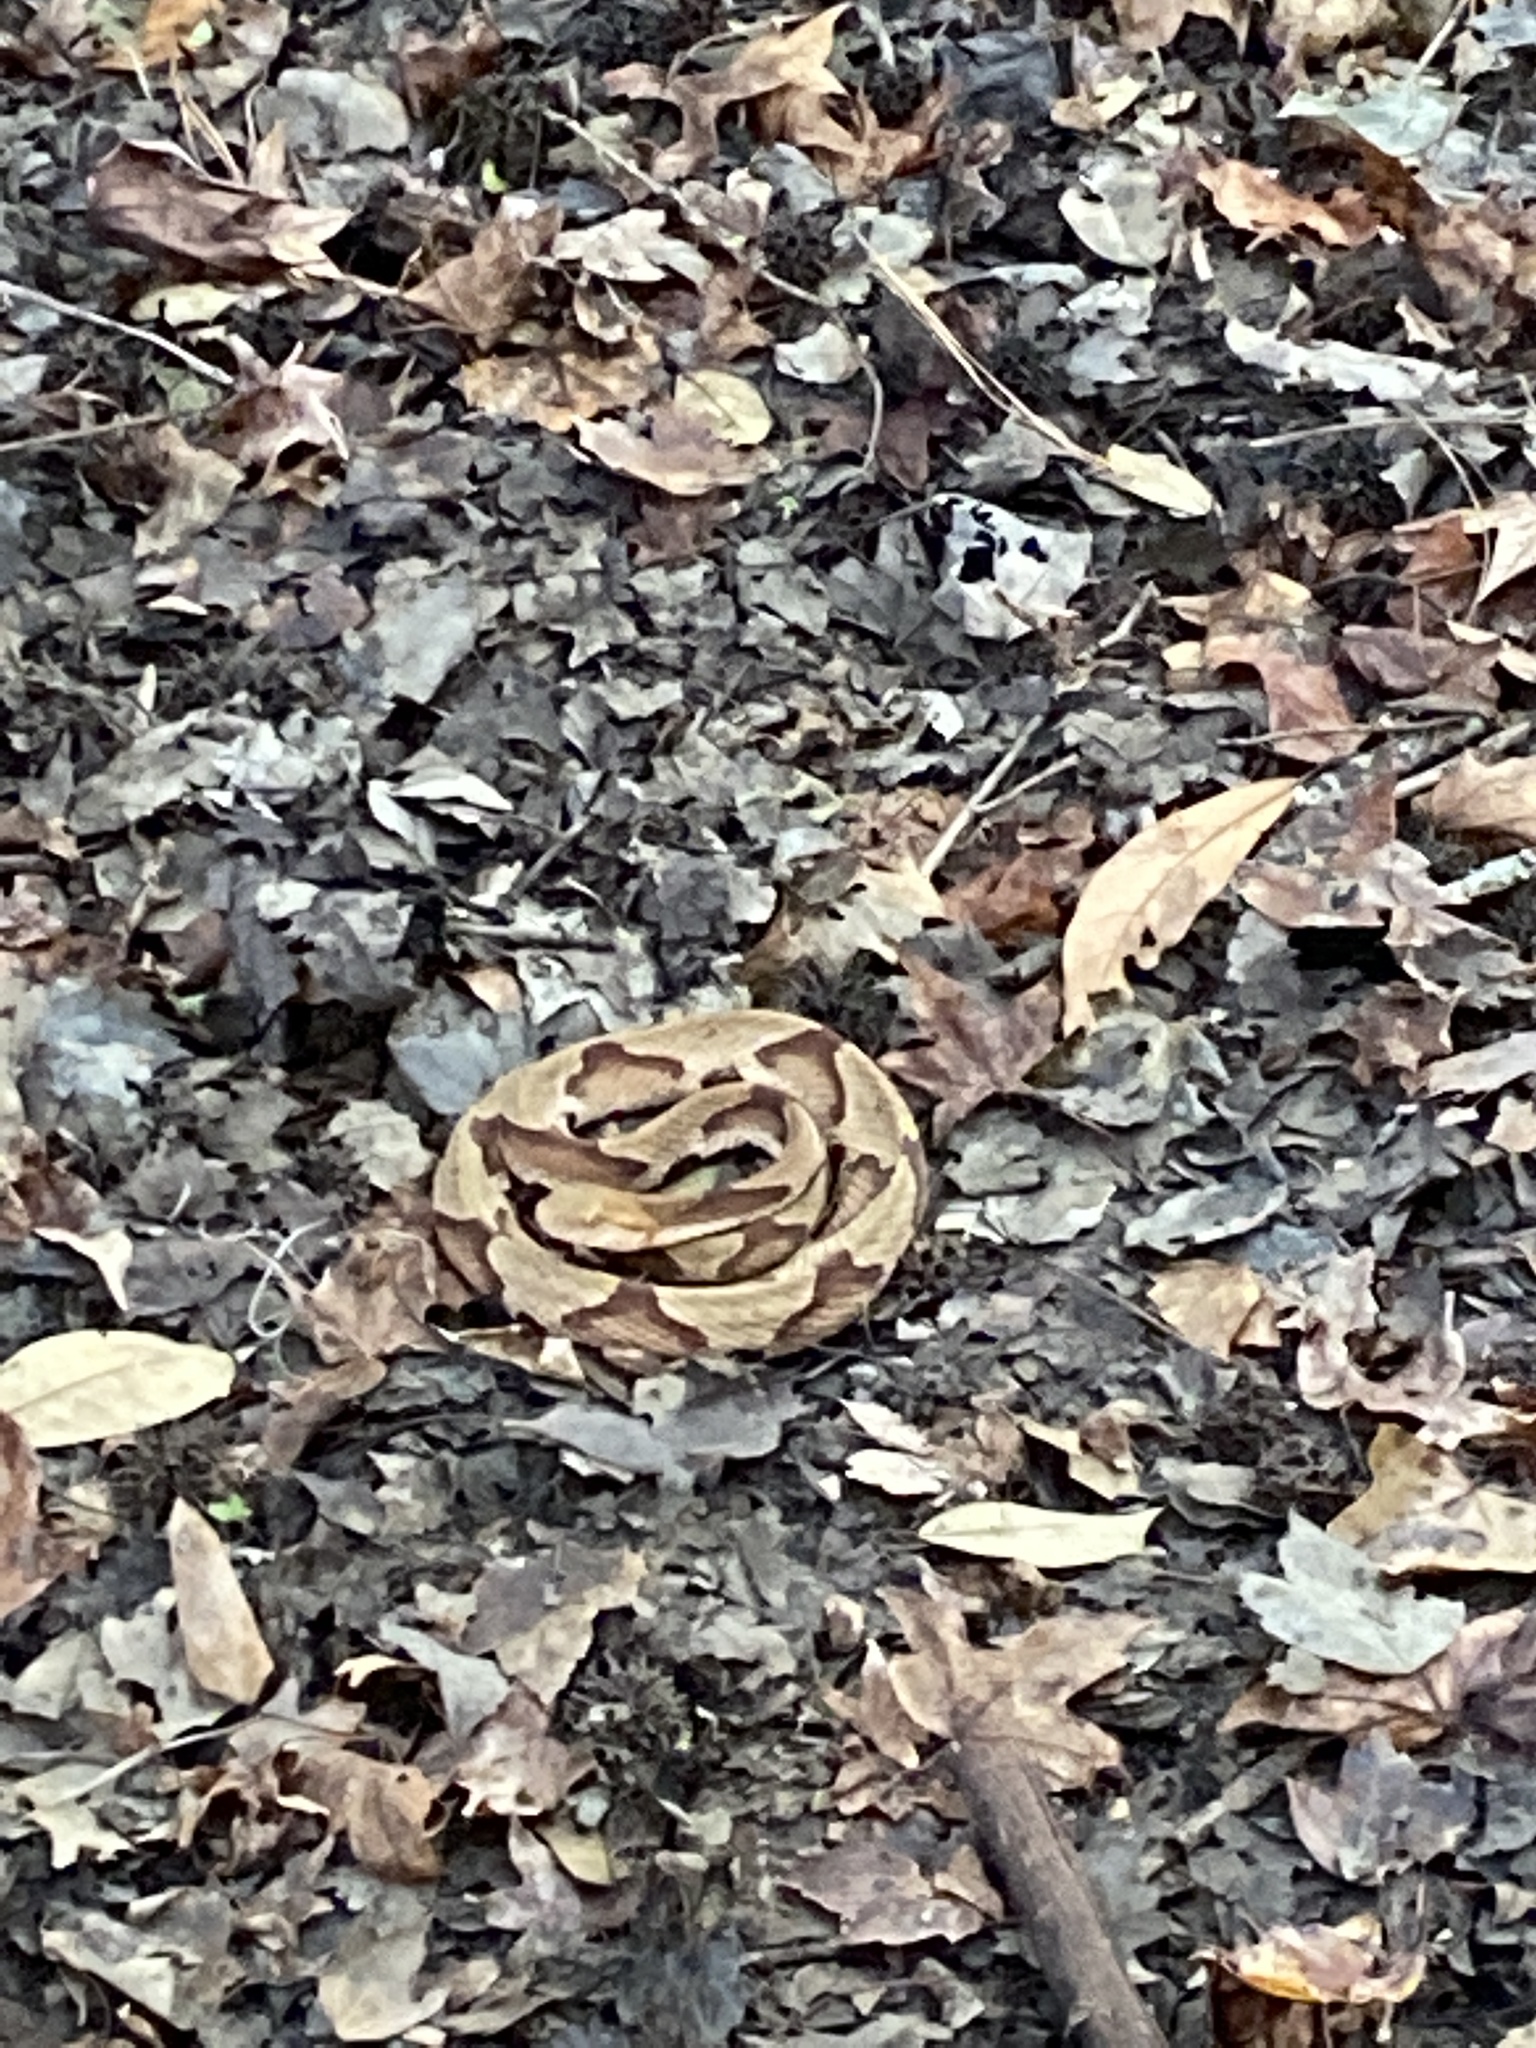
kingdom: Animalia
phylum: Chordata
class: Squamata
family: Viperidae
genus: Agkistrodon
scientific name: Agkistrodon contortrix
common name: Northern copperhead
